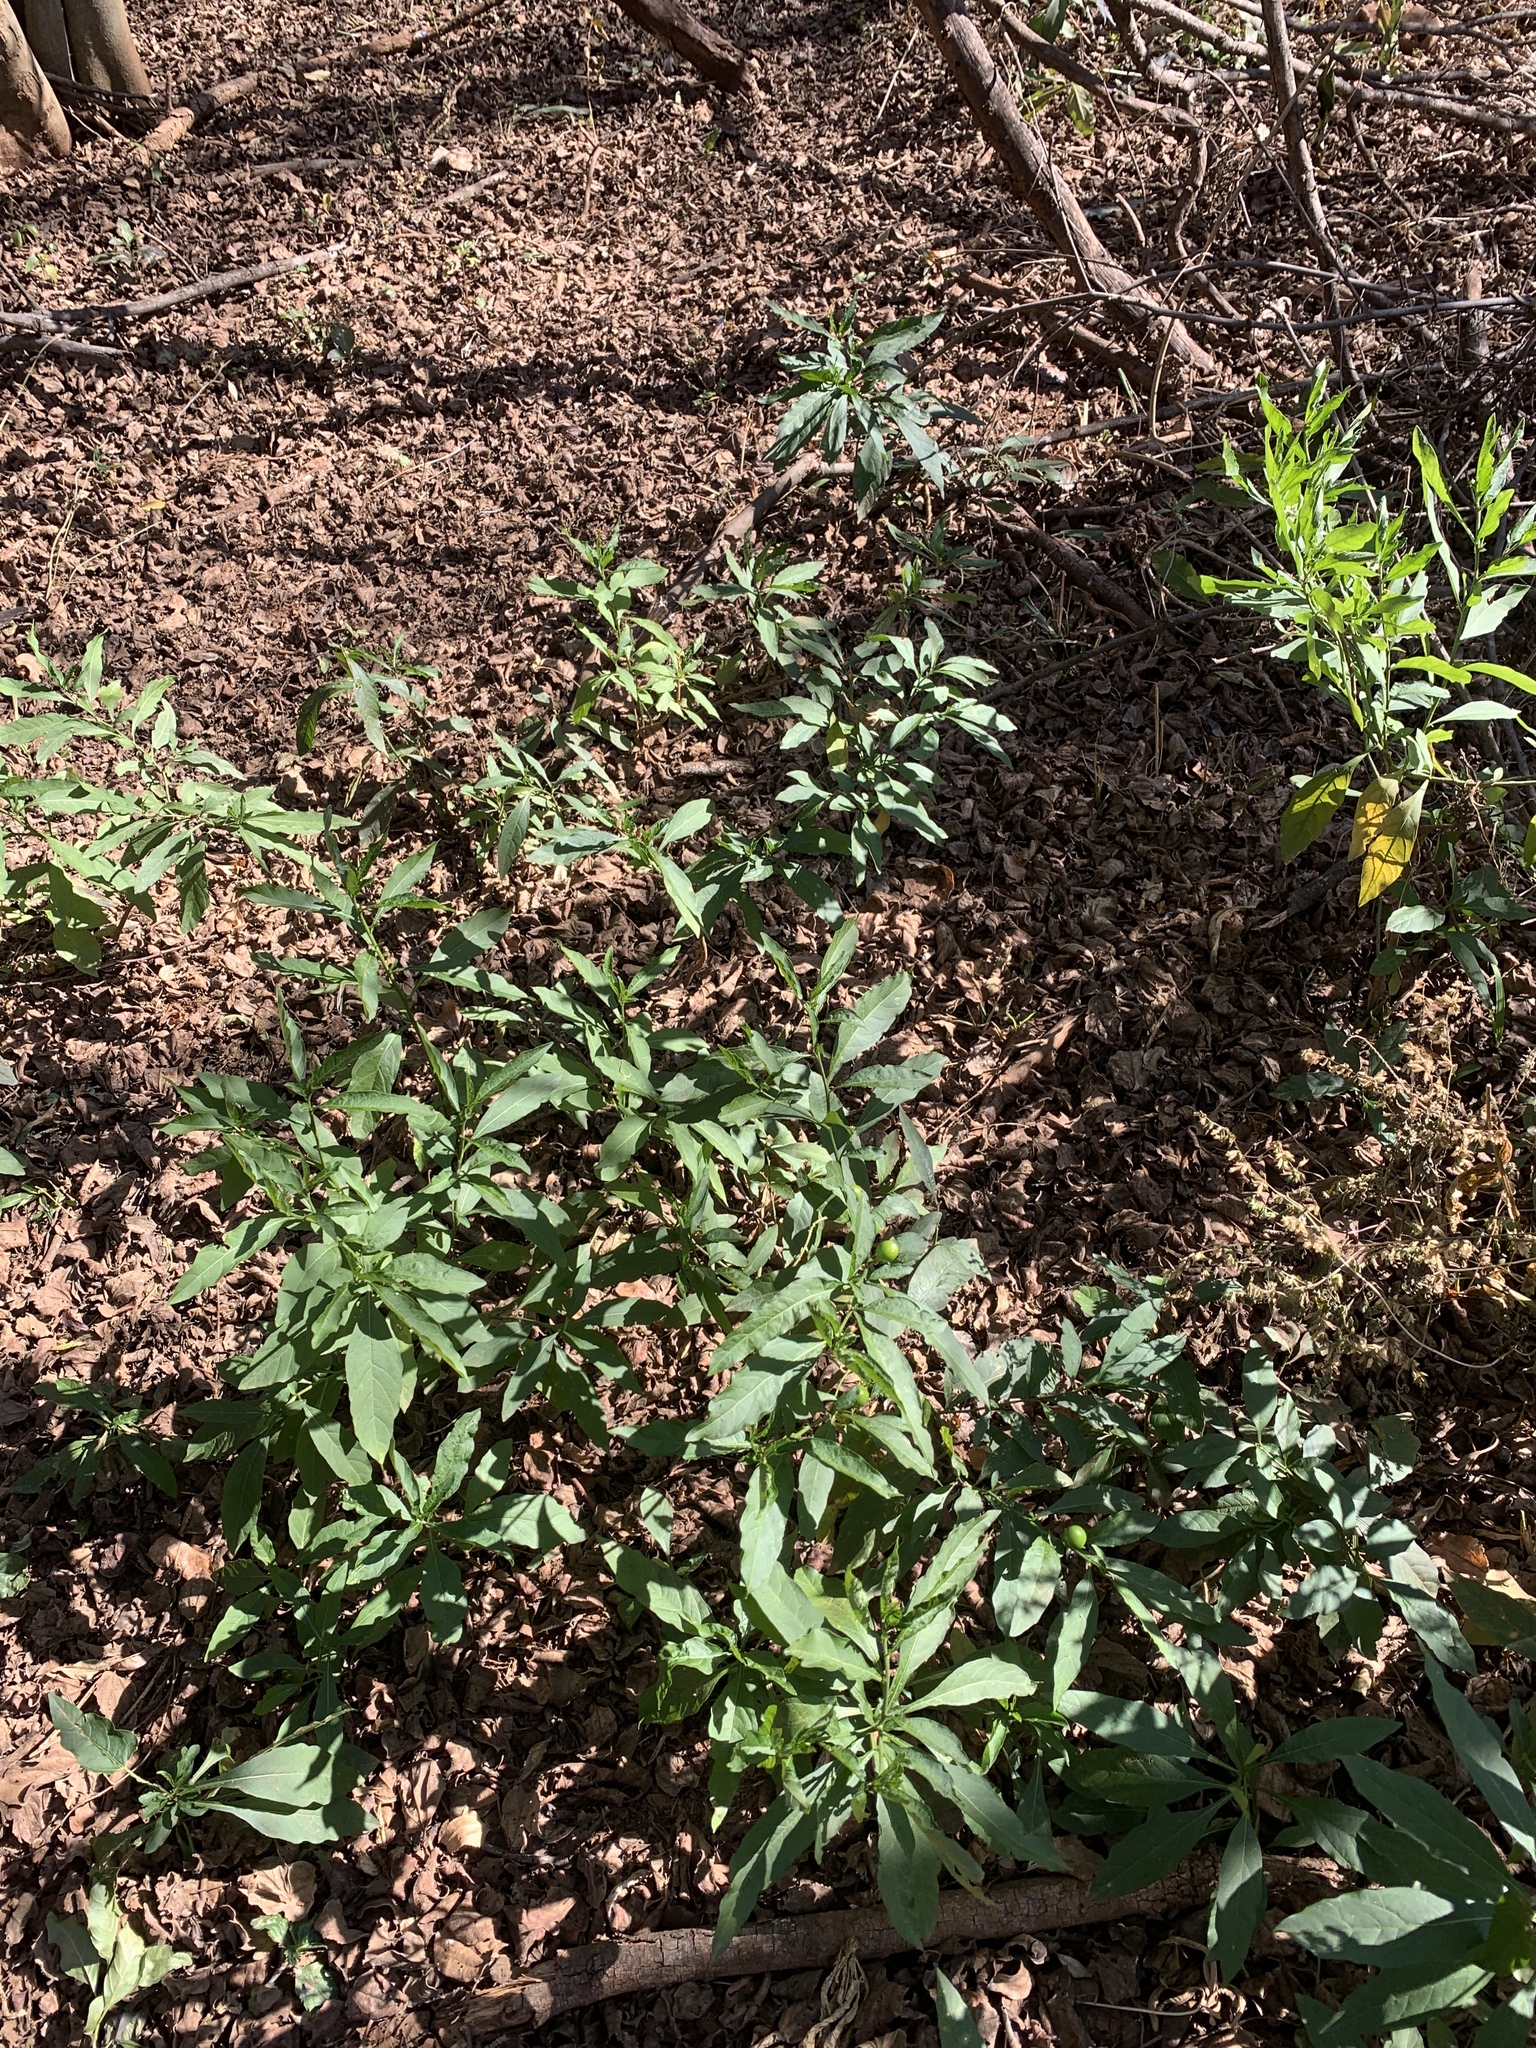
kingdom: Plantae
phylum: Tracheophyta
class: Magnoliopsida
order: Solanales
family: Solanaceae
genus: Solanum
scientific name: Solanum pseudocapsicum
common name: Jerusalem cherry
